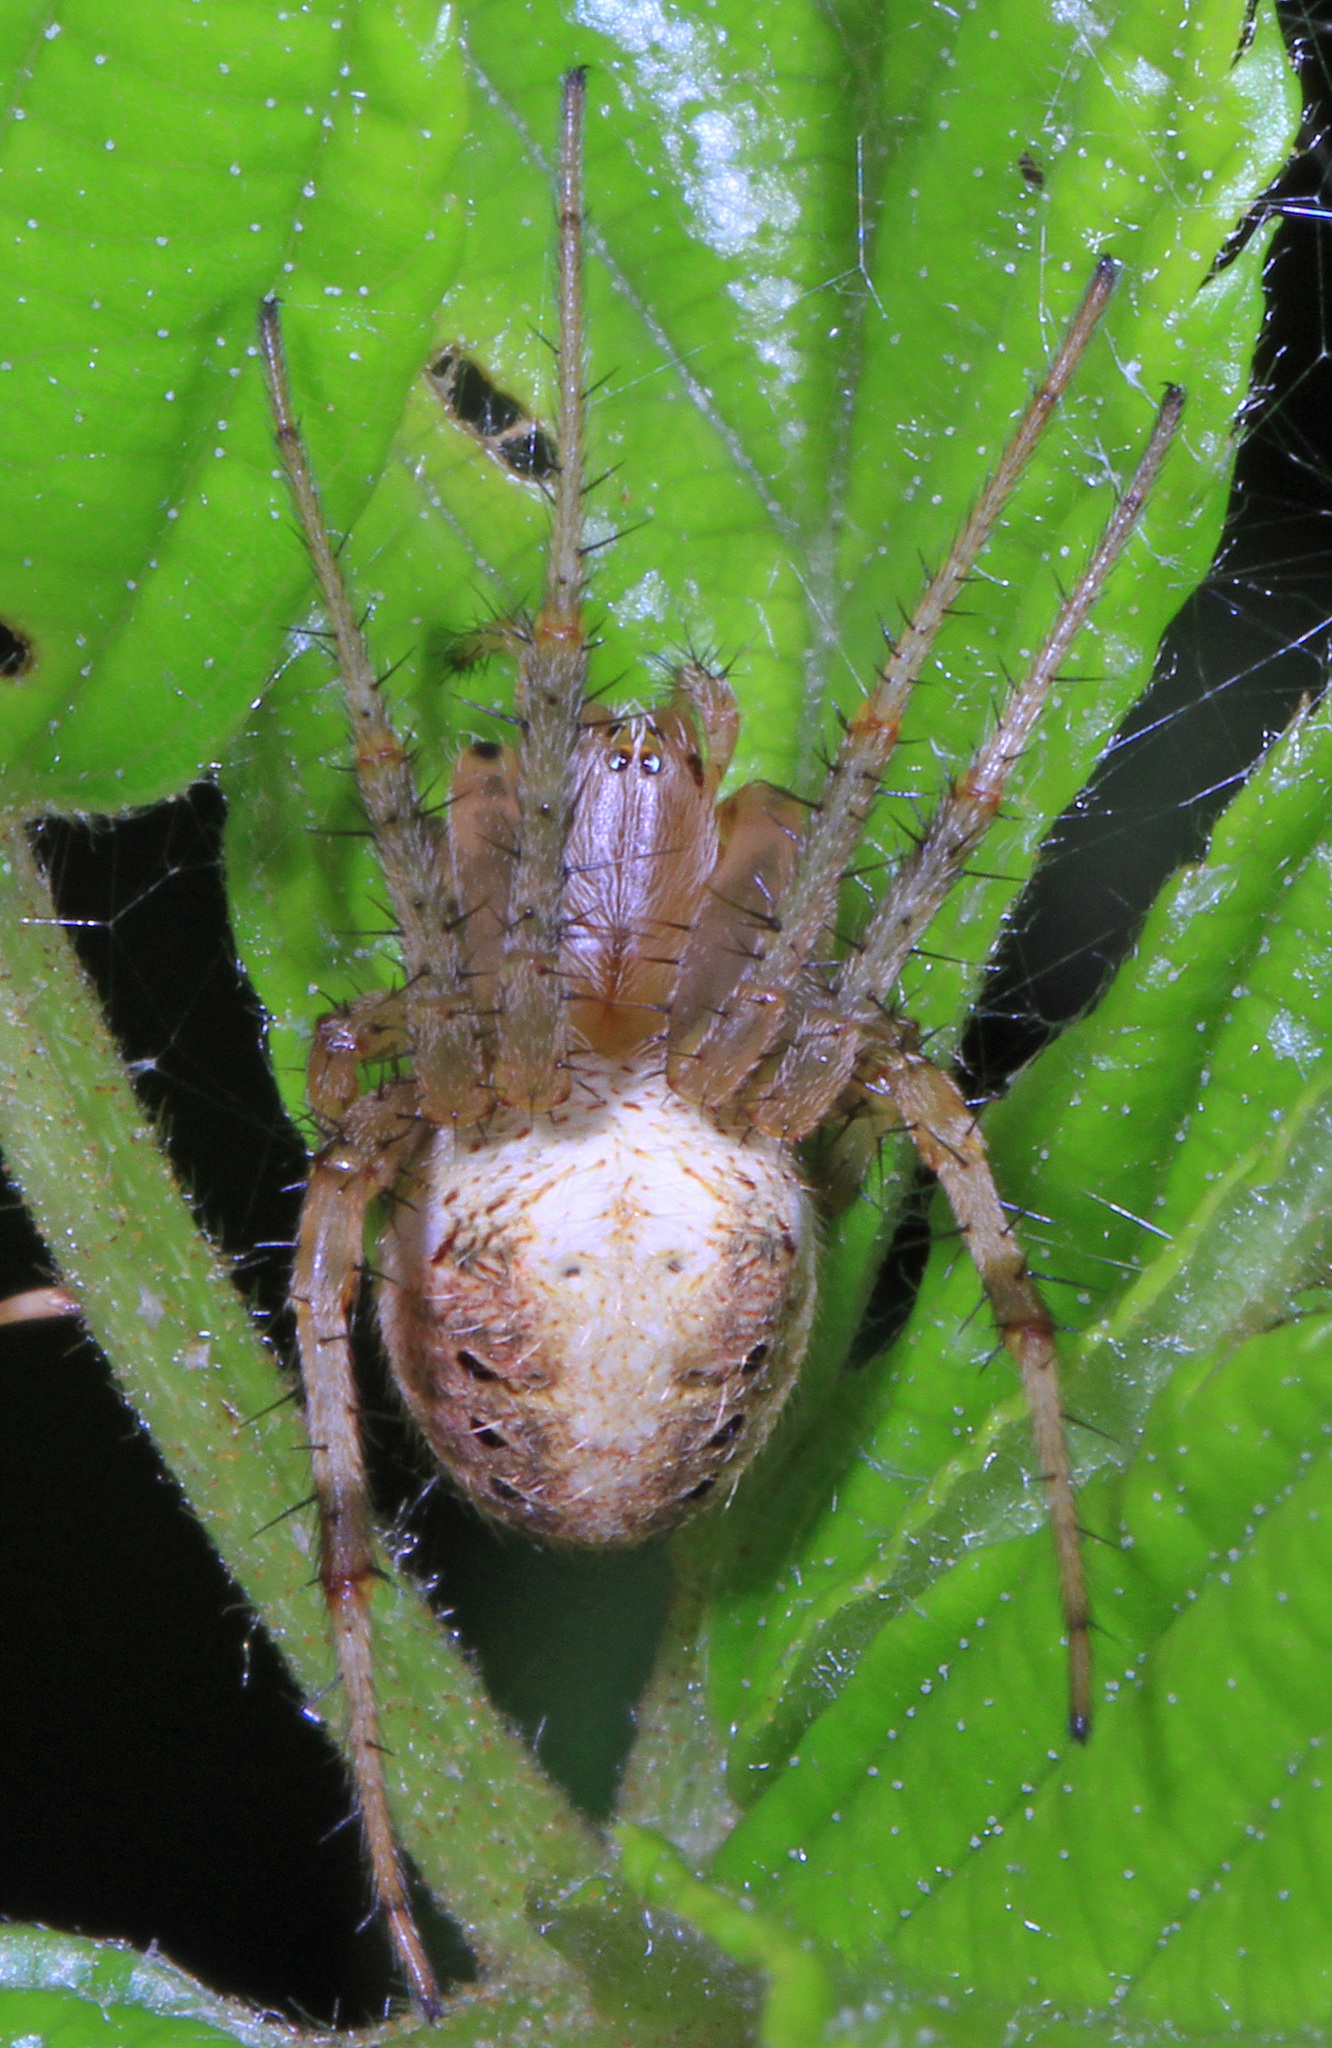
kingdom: Animalia
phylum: Arthropoda
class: Arachnida
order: Araneae
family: Araneidae
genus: Neoscona
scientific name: Neoscona arabesca
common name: Orb weavers
